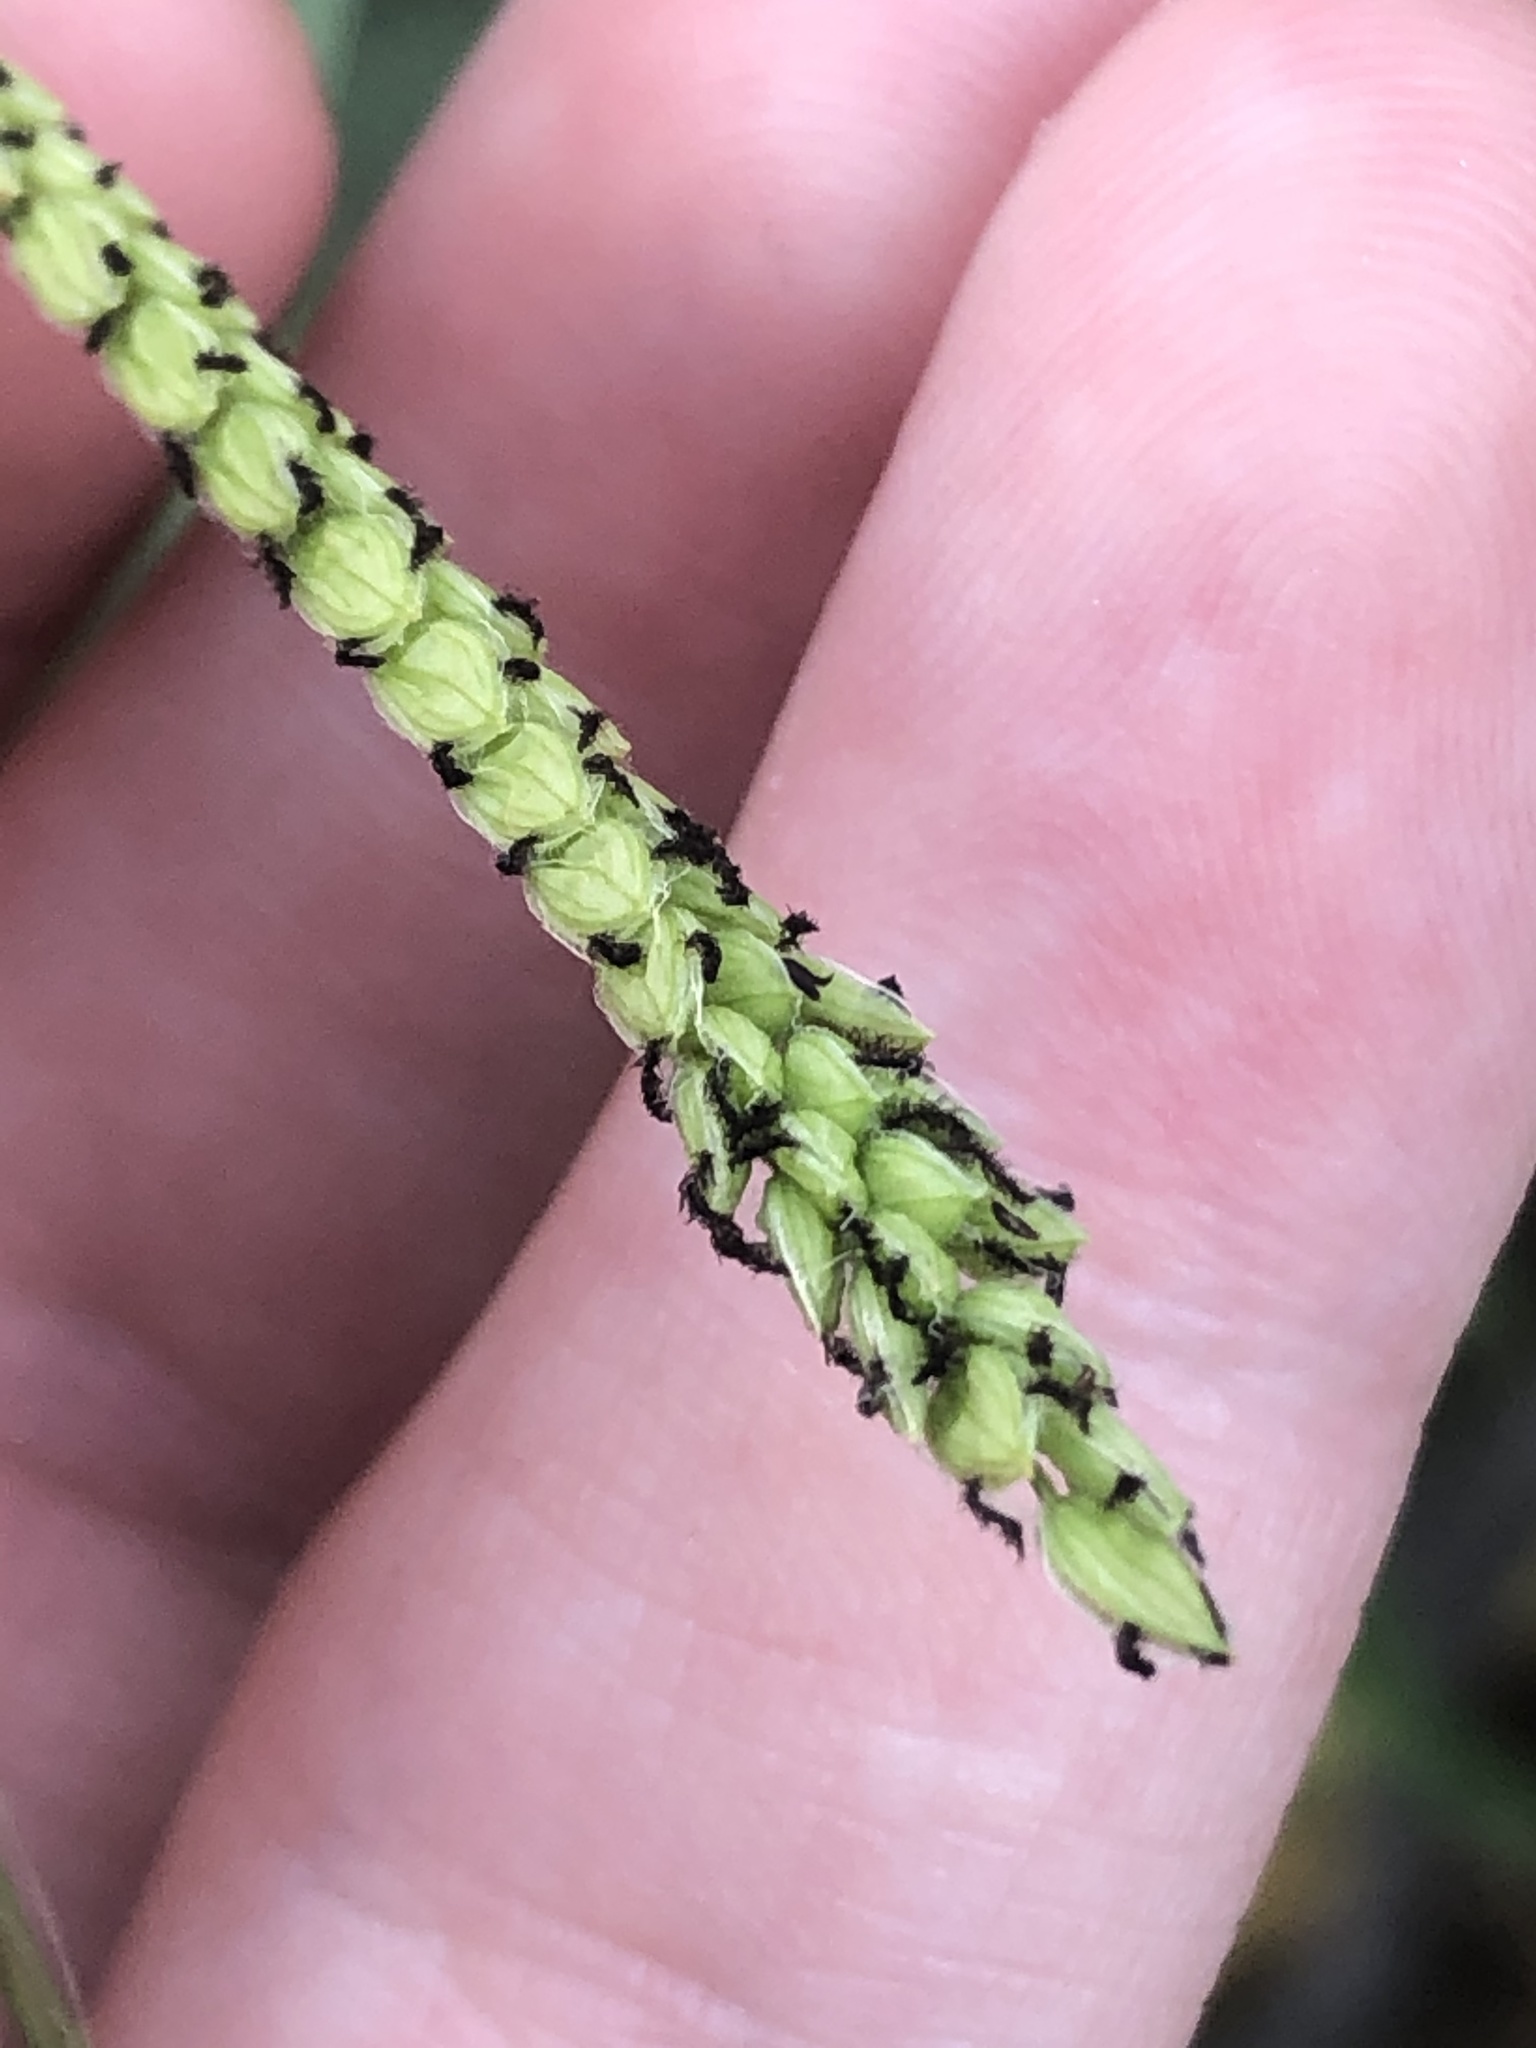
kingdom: Plantae
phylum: Tracheophyta
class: Liliopsida
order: Poales
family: Poaceae
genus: Paspalum
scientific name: Paspalum dilatatum
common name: Dallisgrass
